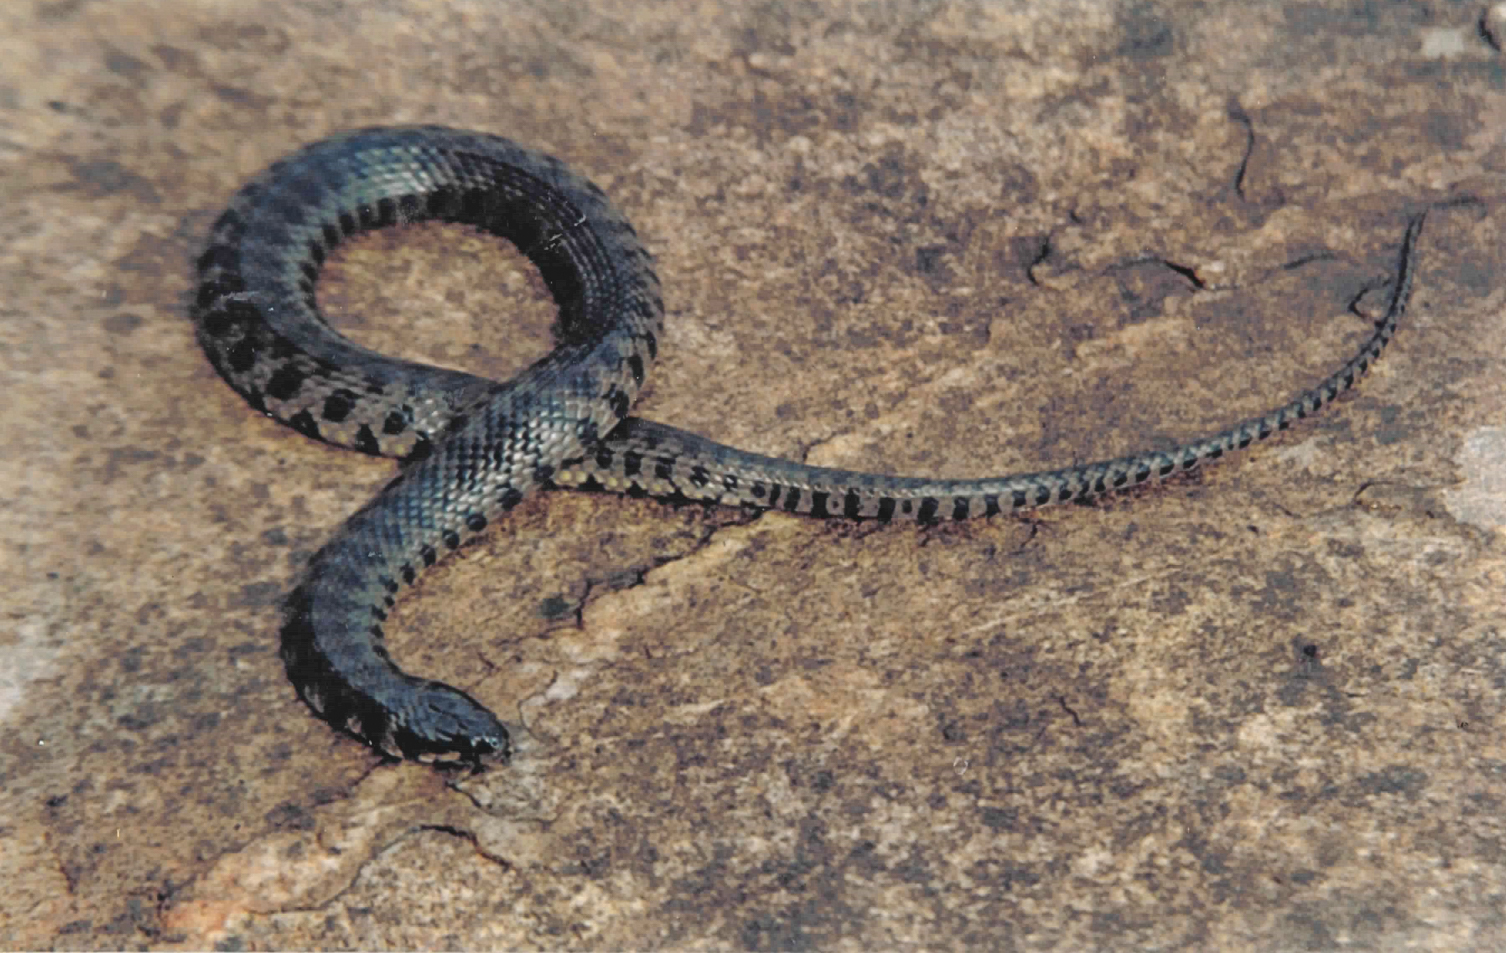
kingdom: Animalia
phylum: Chordata
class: Squamata
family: Colubridae
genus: Helicops
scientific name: Helicops leopardinus
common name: Leopard keelback
